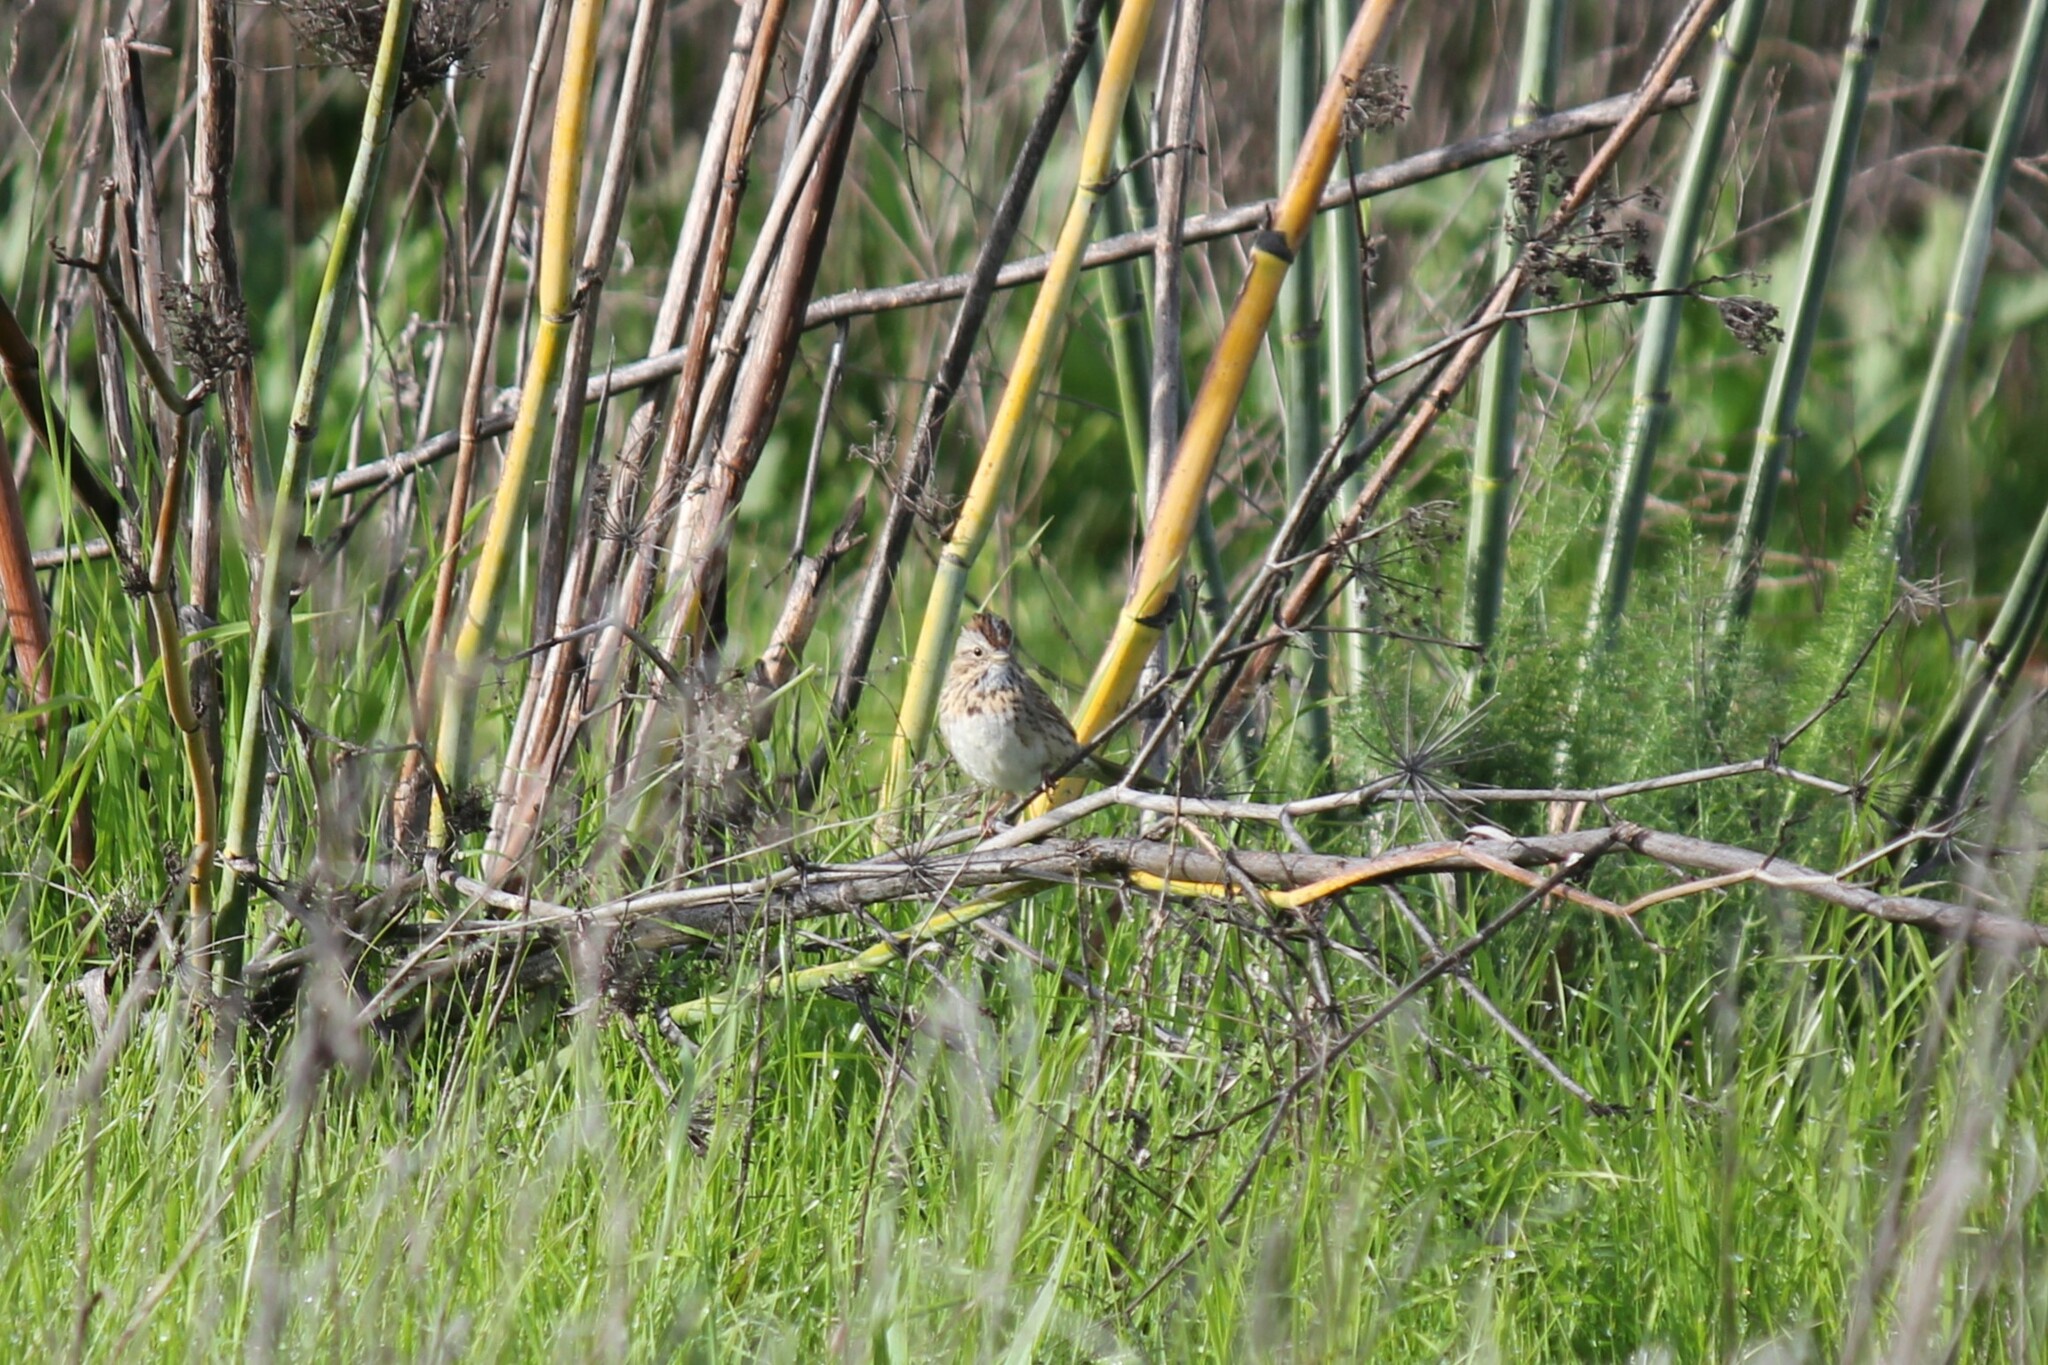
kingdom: Animalia
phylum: Chordata
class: Aves
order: Passeriformes
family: Passerellidae
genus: Melospiza
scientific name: Melospiza lincolnii
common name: Lincoln's sparrow
